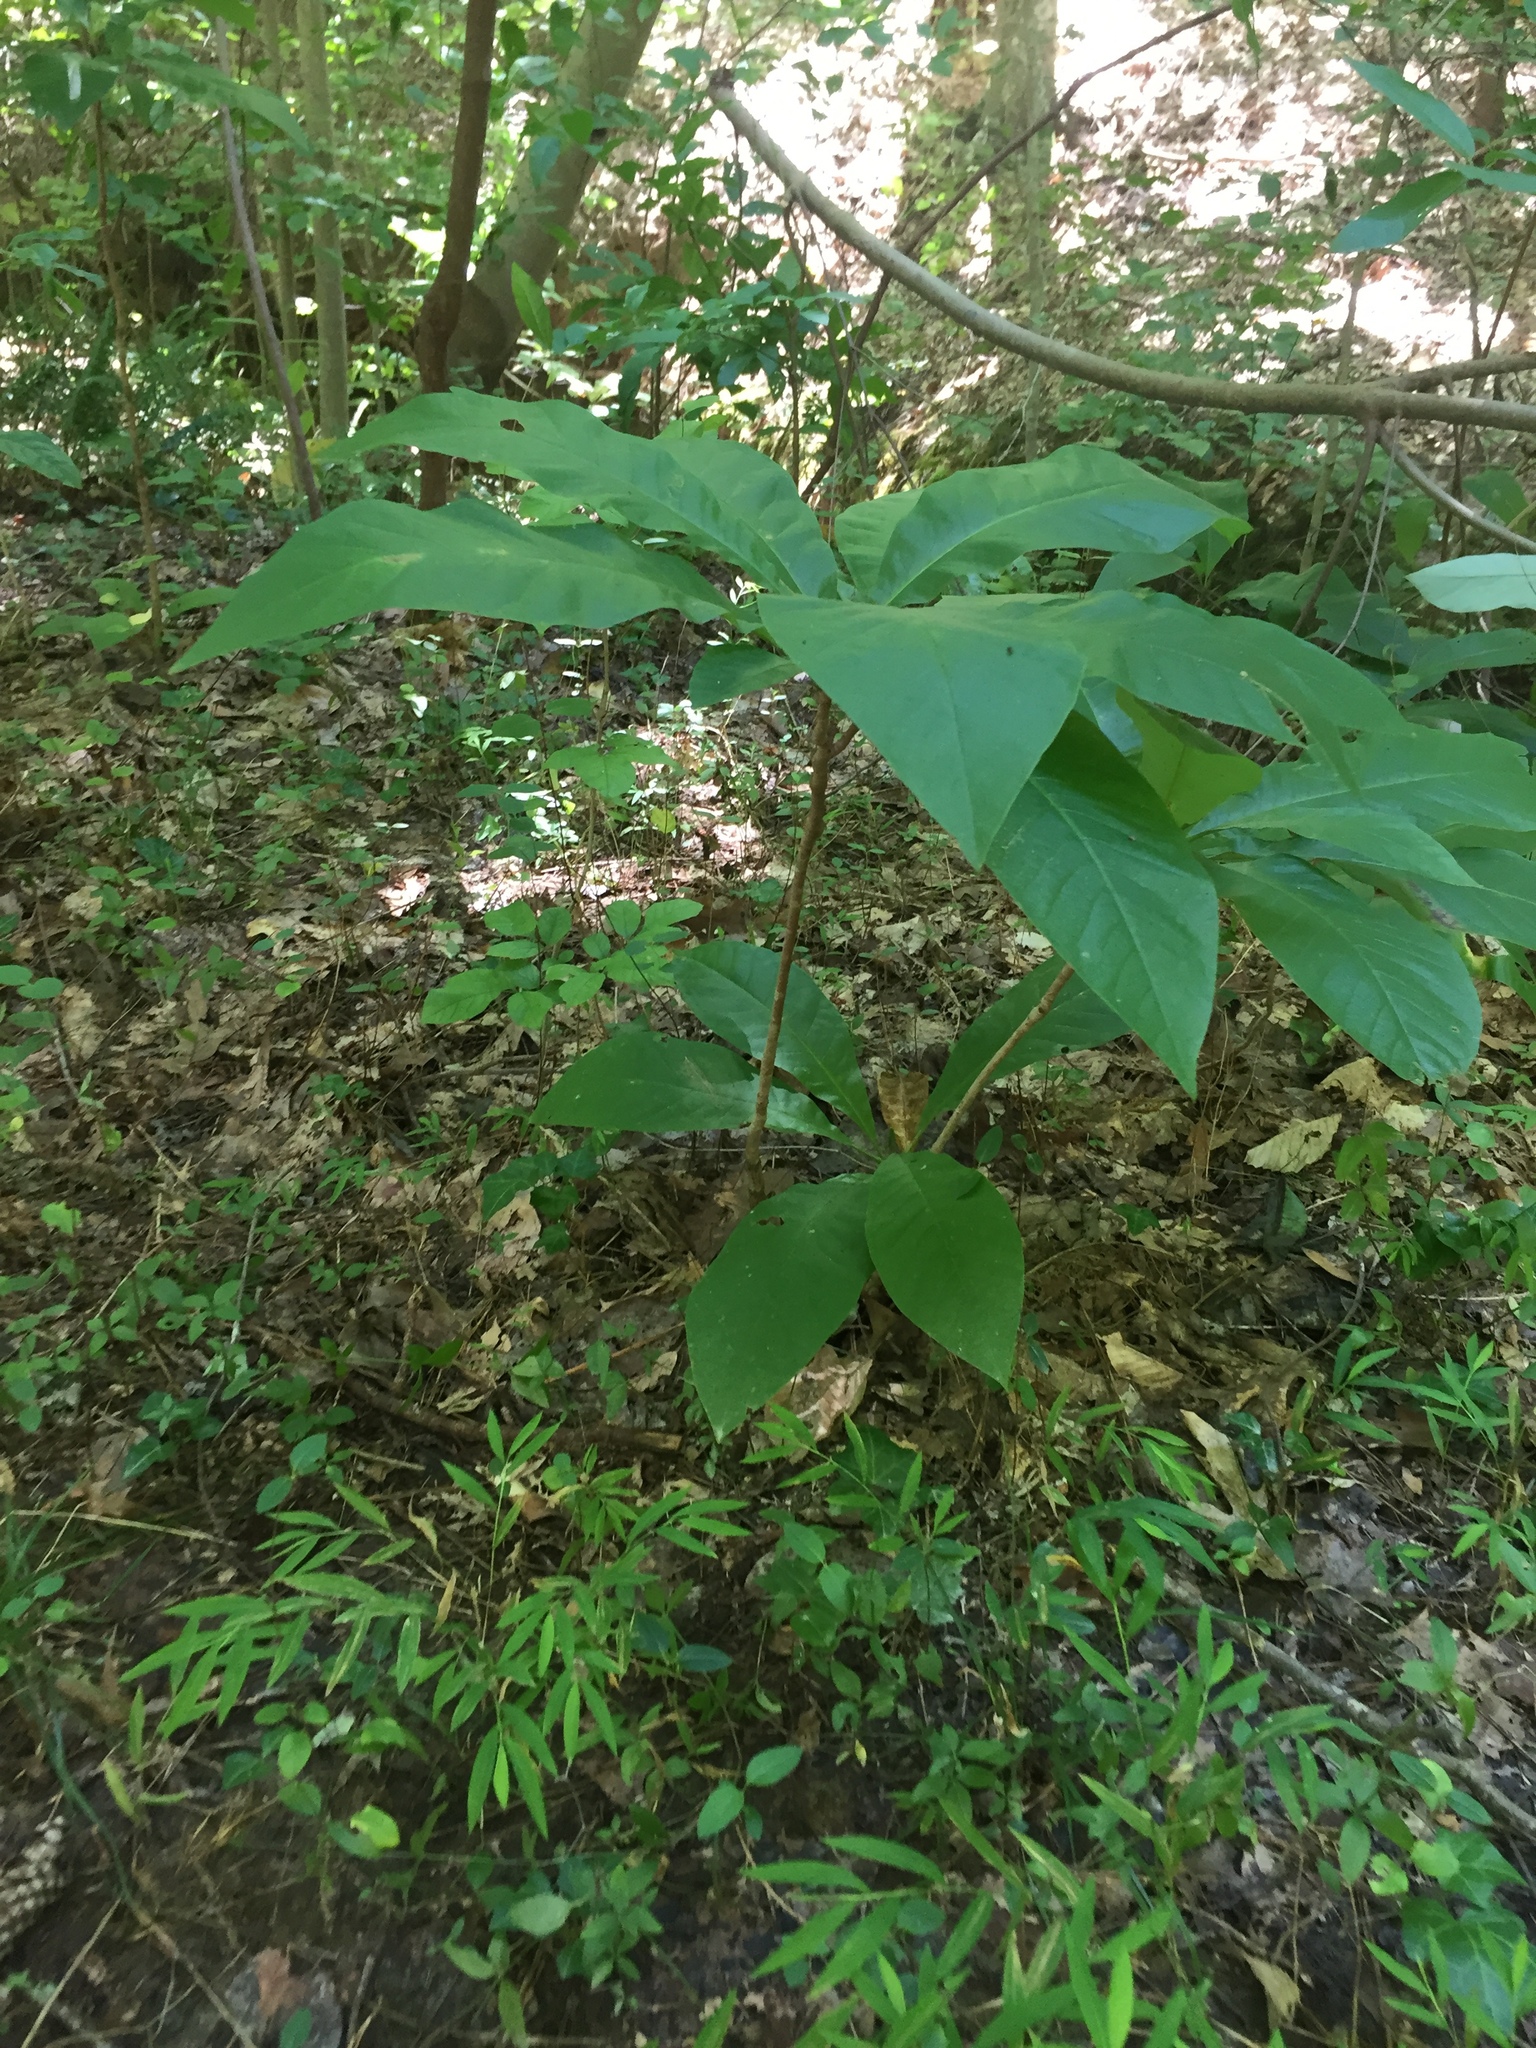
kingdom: Plantae
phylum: Tracheophyta
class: Magnoliopsida
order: Magnoliales
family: Magnoliaceae
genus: Magnolia
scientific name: Magnolia tripetala
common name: Umbrella magnolia
